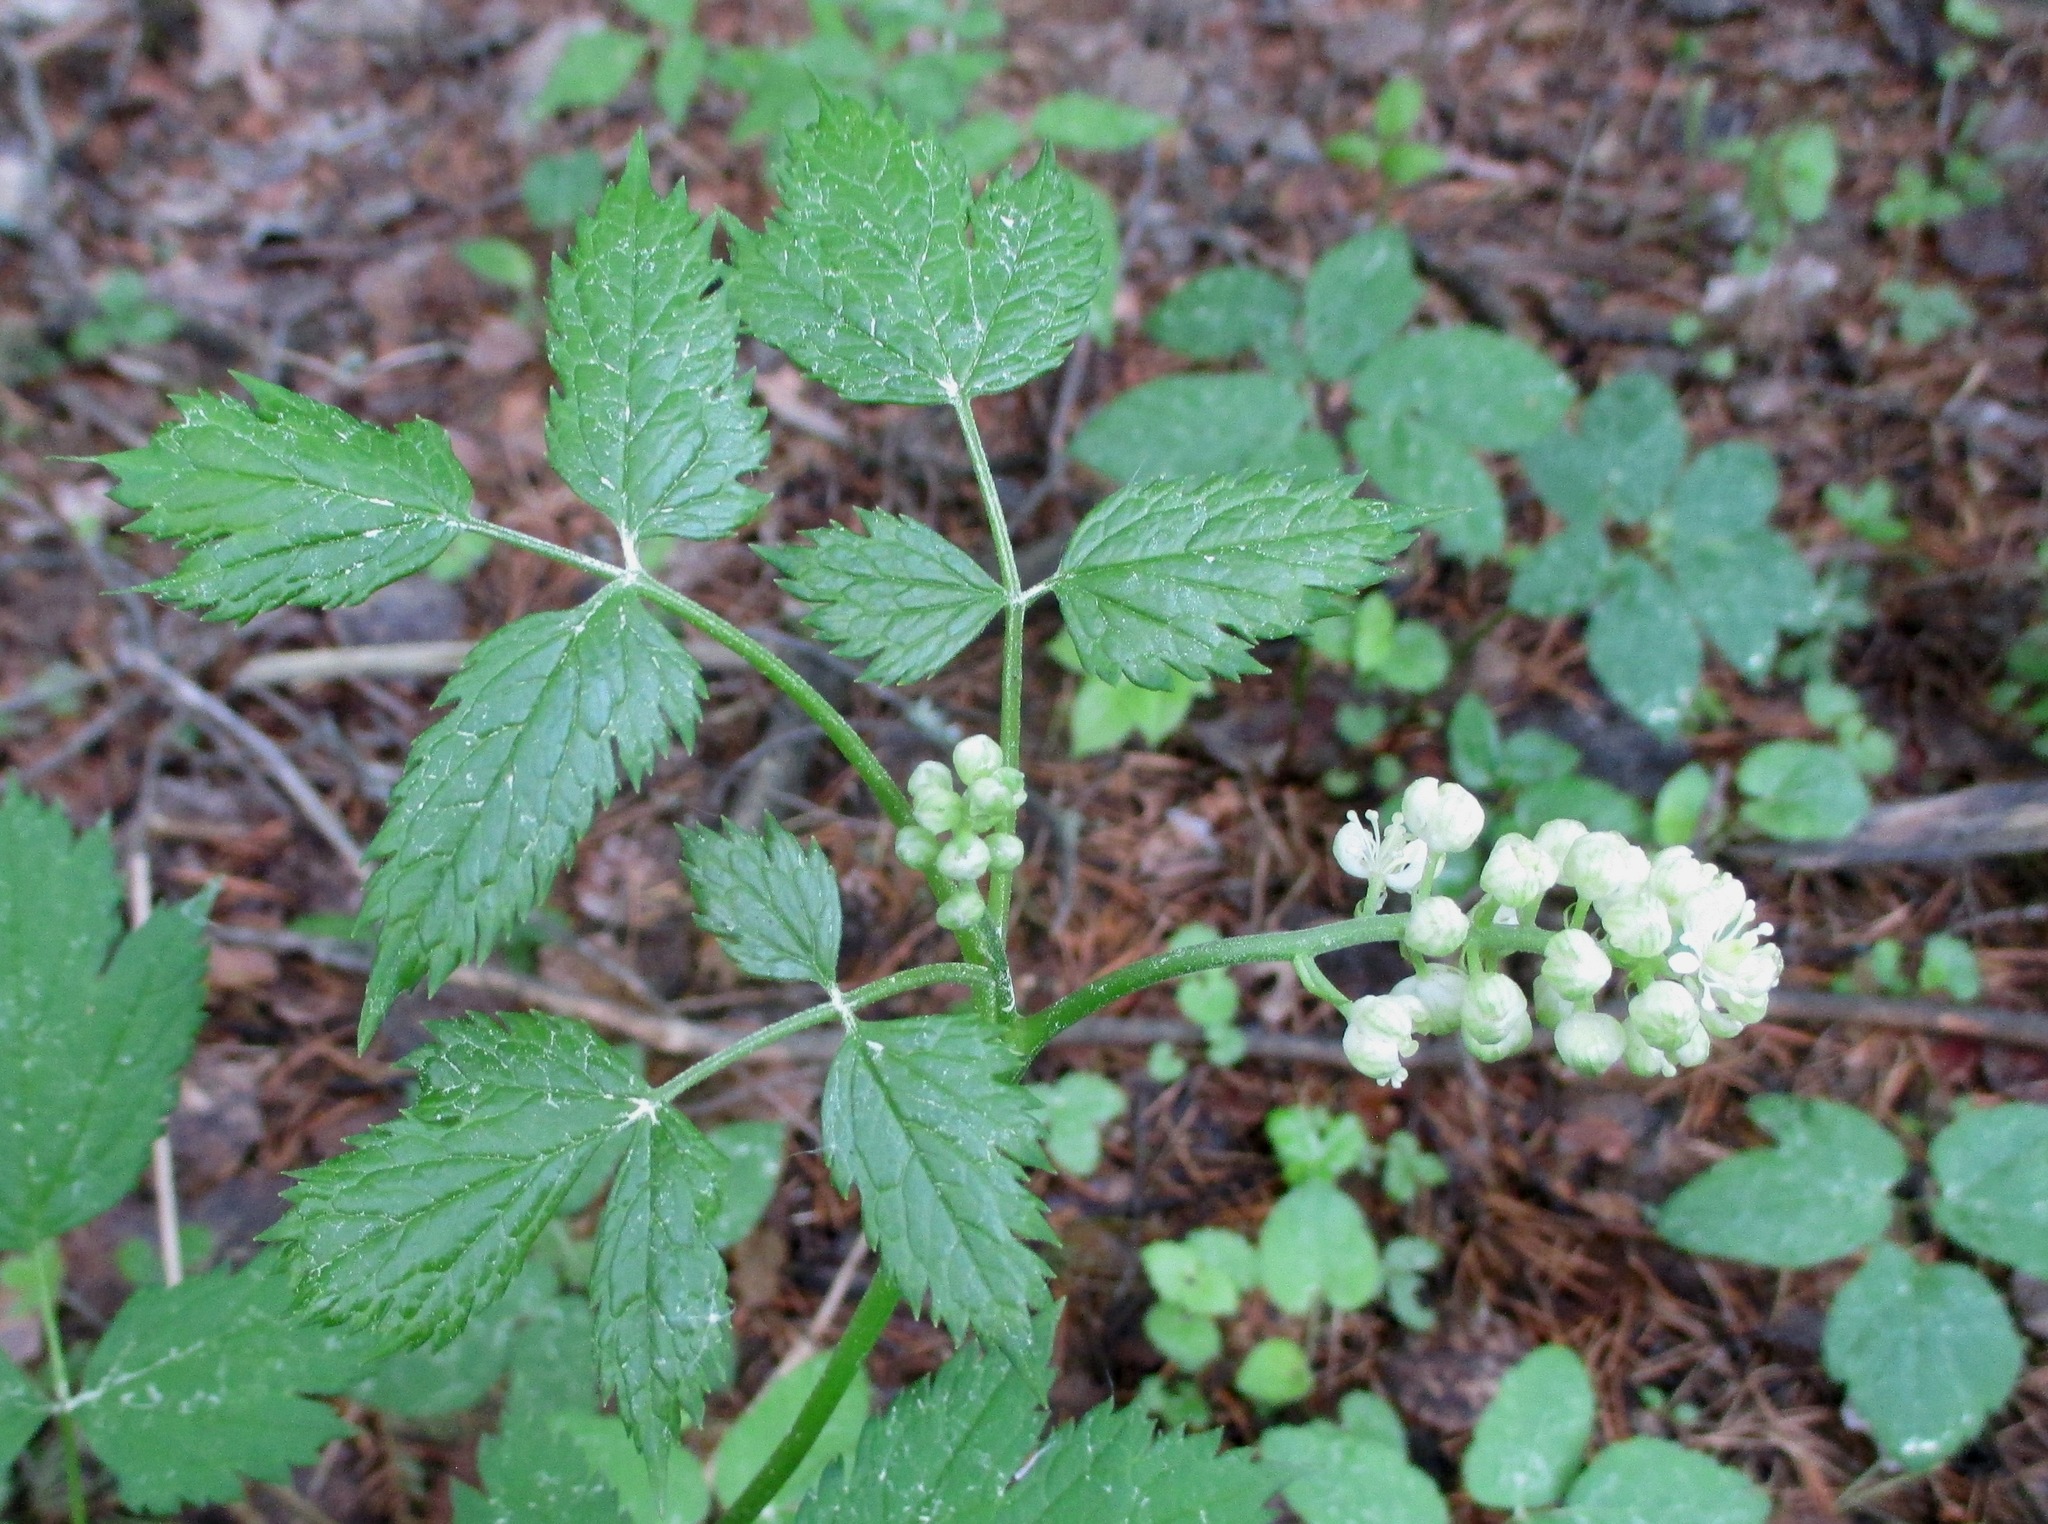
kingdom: Plantae
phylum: Tracheophyta
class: Magnoliopsida
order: Ranunculales
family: Ranunculaceae
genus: Actaea
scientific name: Actaea spicata
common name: Baneberry
